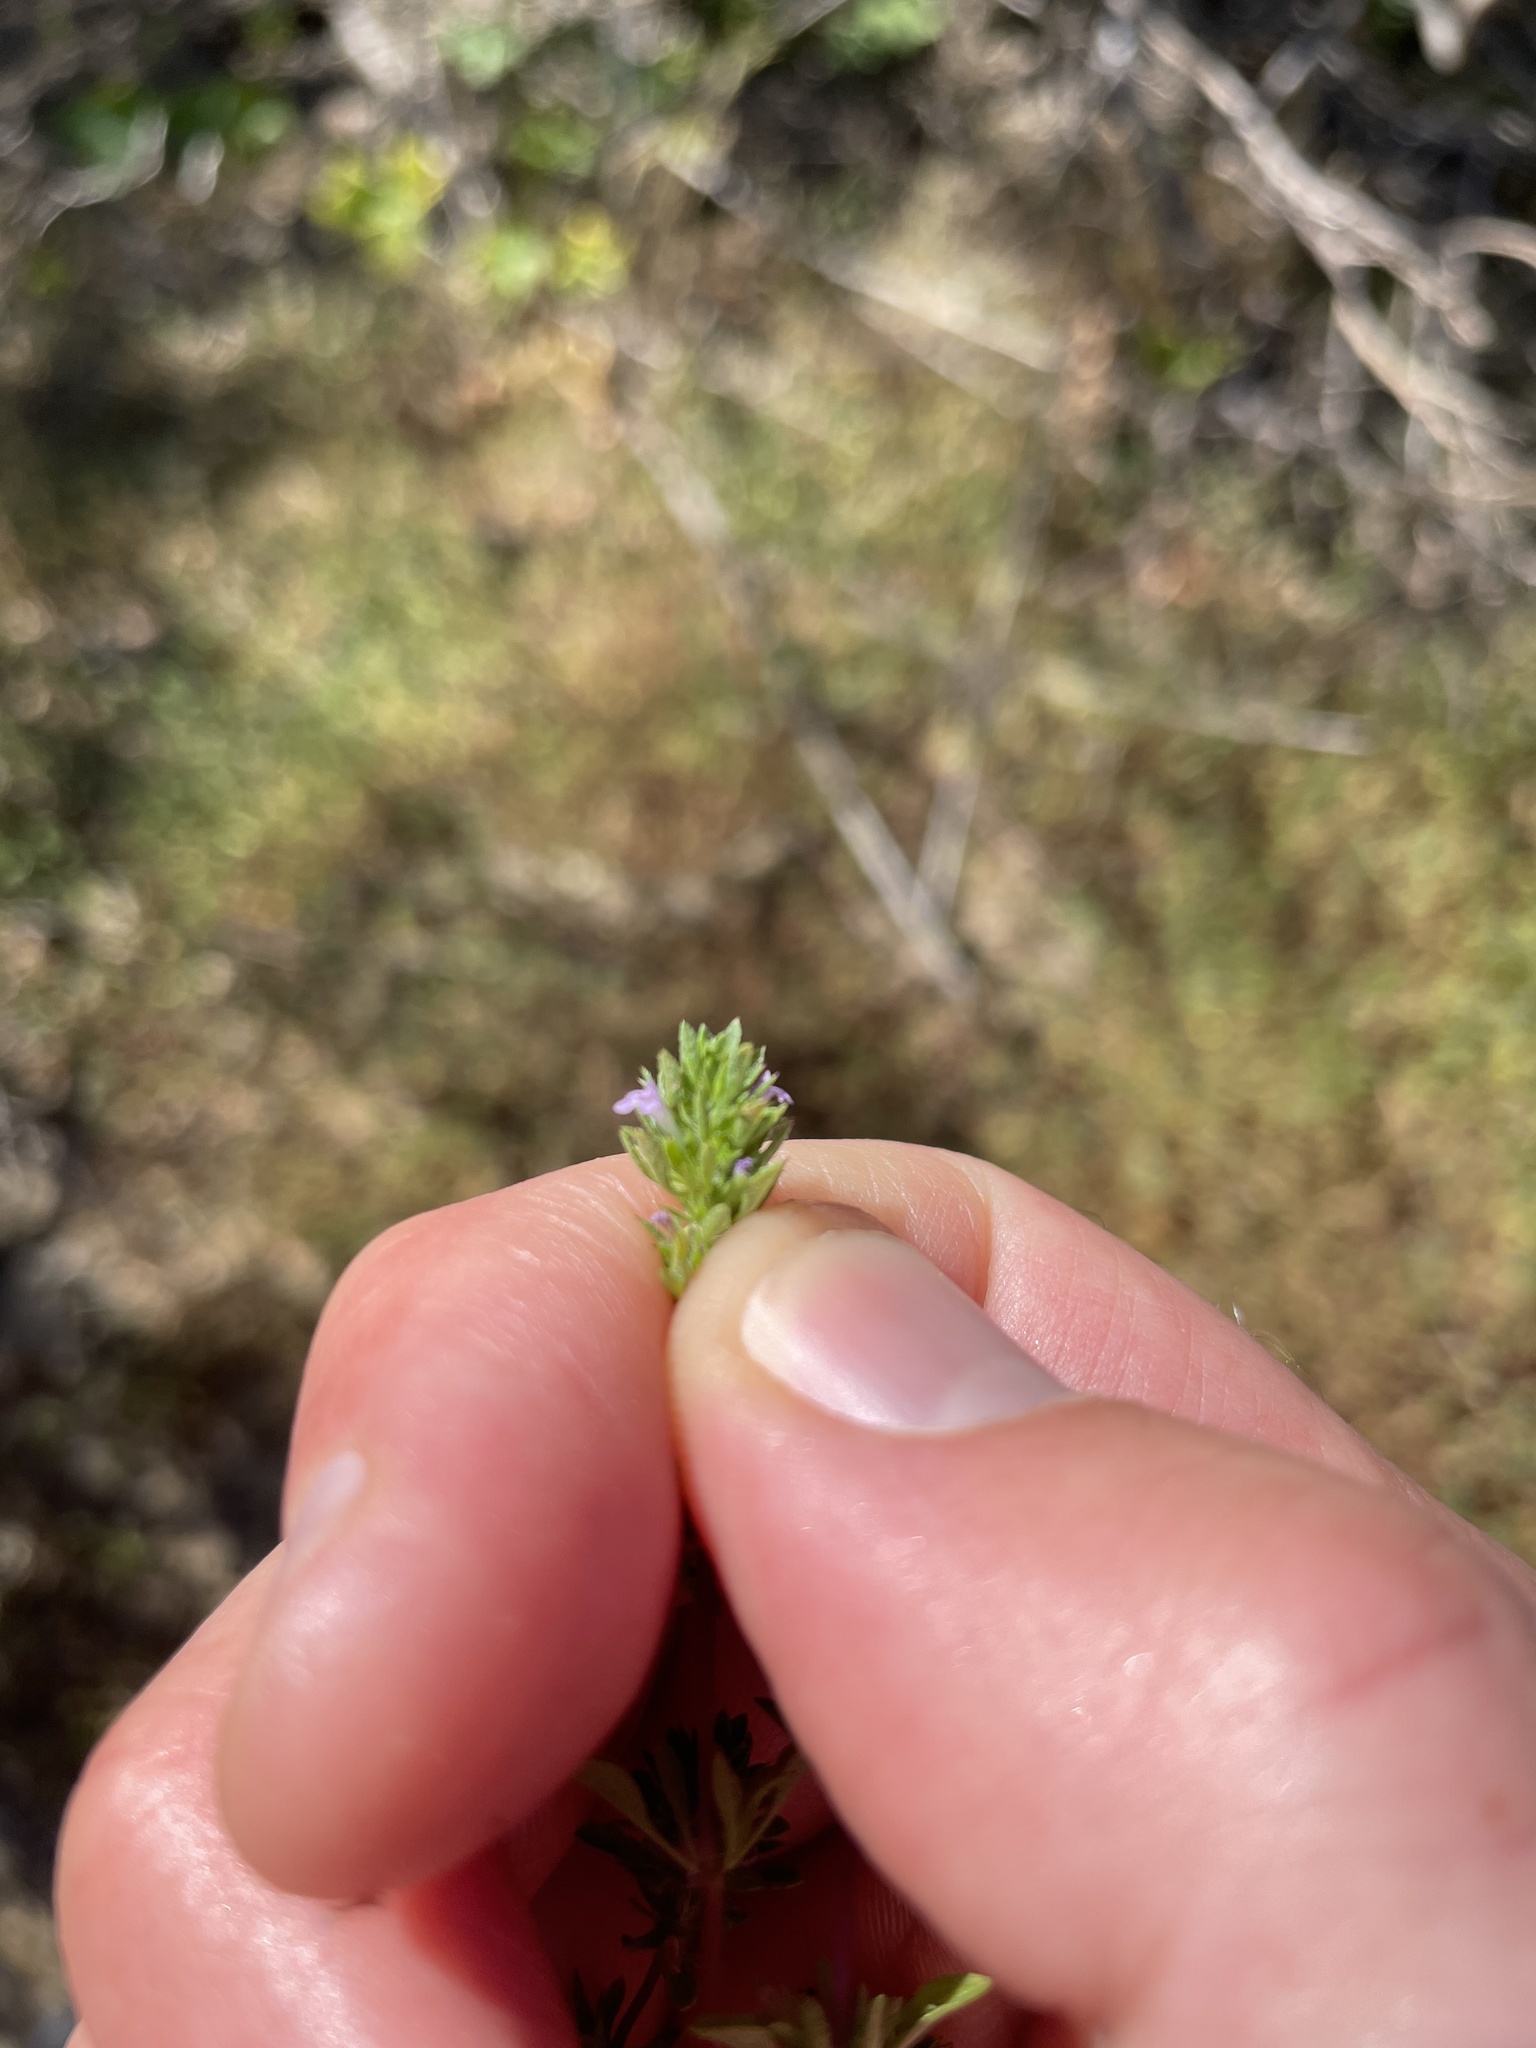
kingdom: Plantae
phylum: Tracheophyta
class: Magnoliopsida
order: Lamiales
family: Lamiaceae
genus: Pogogyne
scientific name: Pogogyne serpylloides
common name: Thymeleaf mesamint
